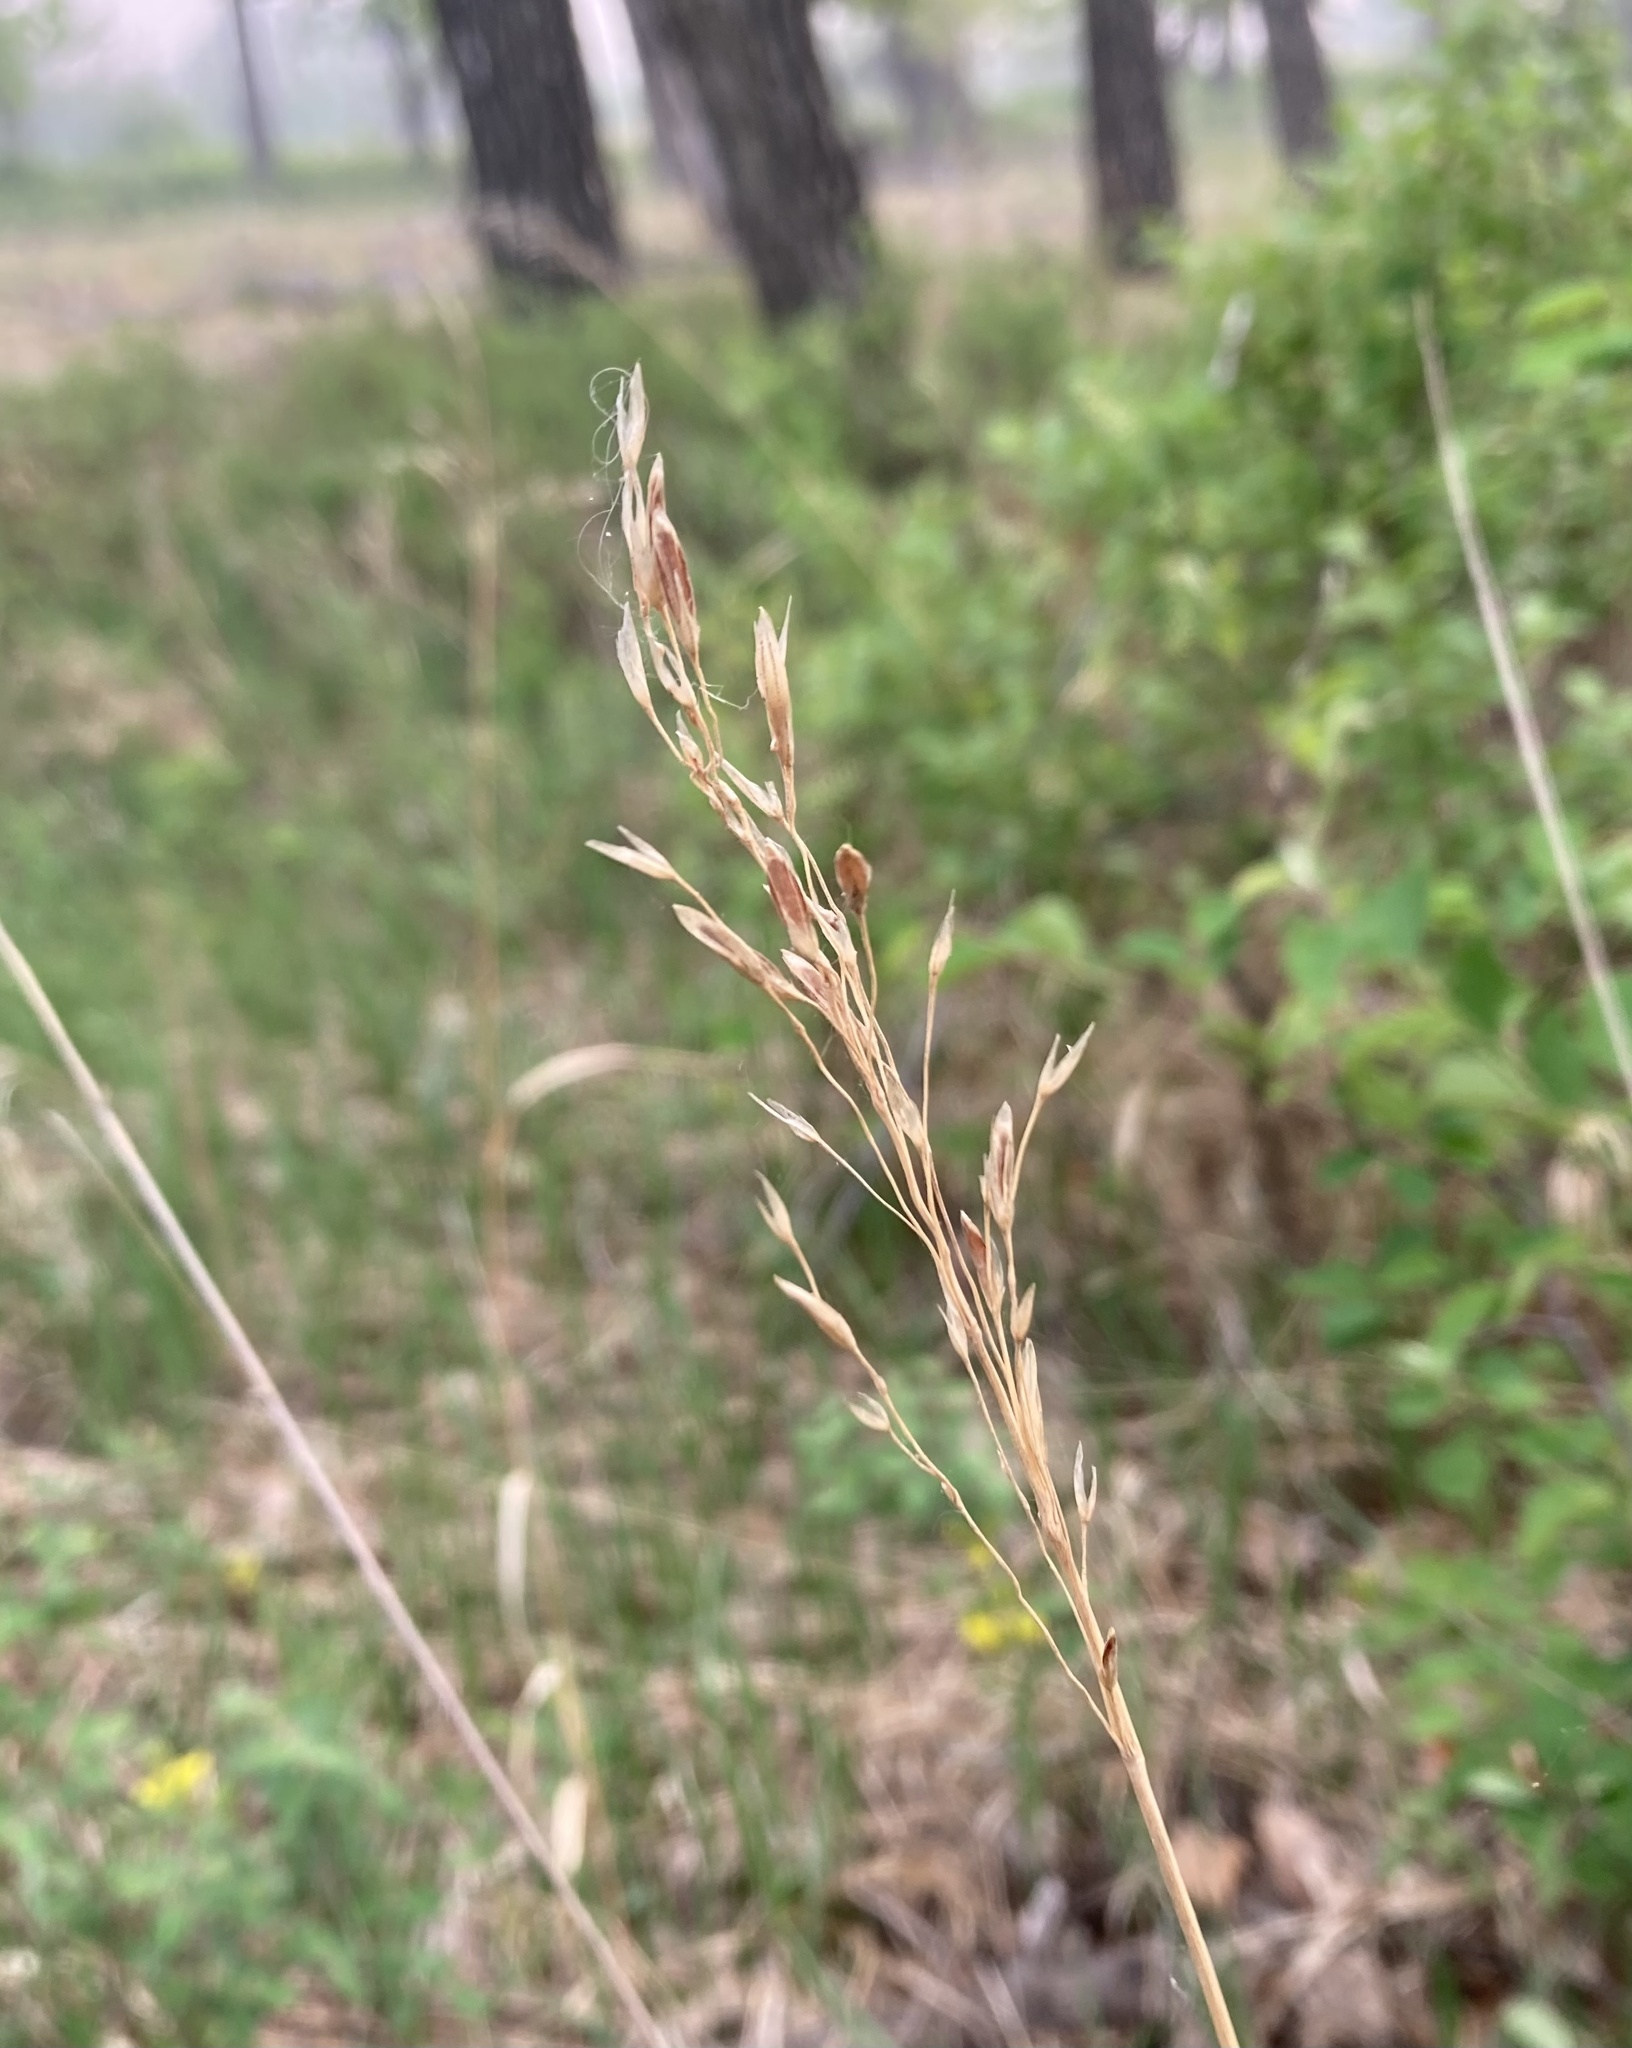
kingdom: Plantae
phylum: Tracheophyta
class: Liliopsida
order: Poales
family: Poaceae
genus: Bromus
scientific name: Bromus inermis
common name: Smooth brome
